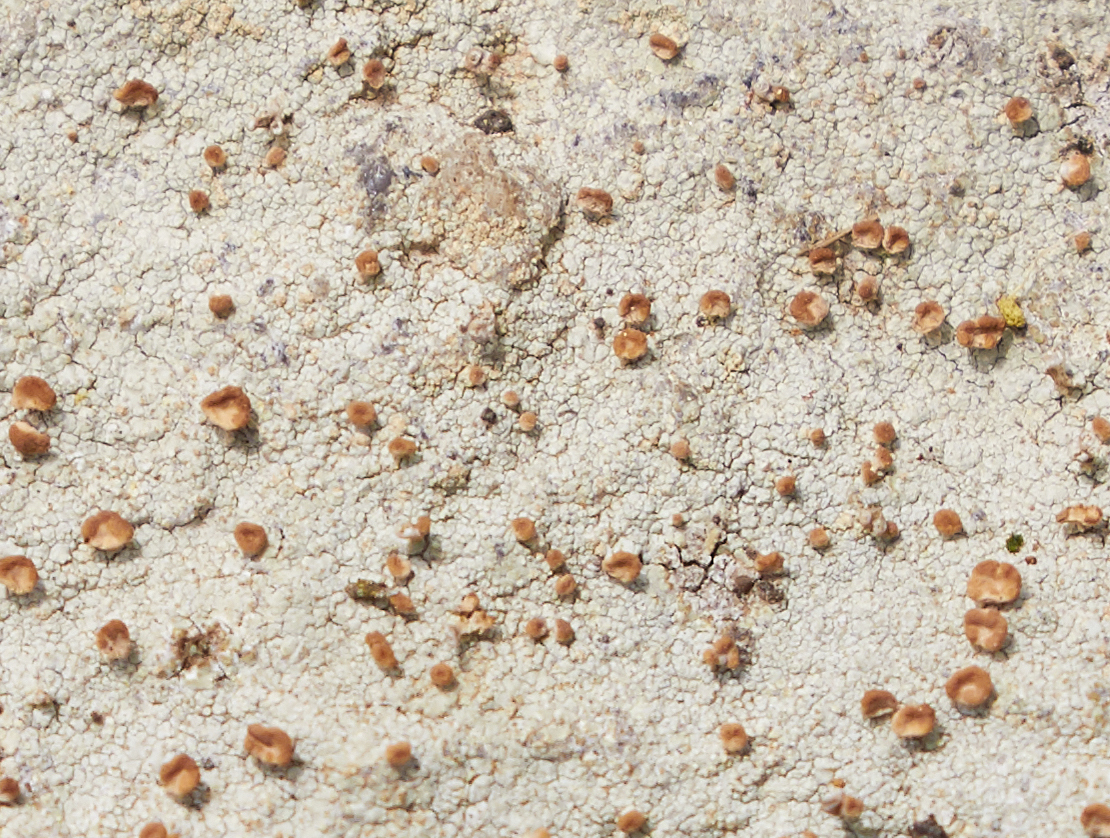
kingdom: Fungi
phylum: Ascomycota
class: Lecanoromycetes
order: Baeomycetales
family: Baeomycetaceae
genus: Baeomyces
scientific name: Baeomyces rufus
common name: Brown beret lichen
